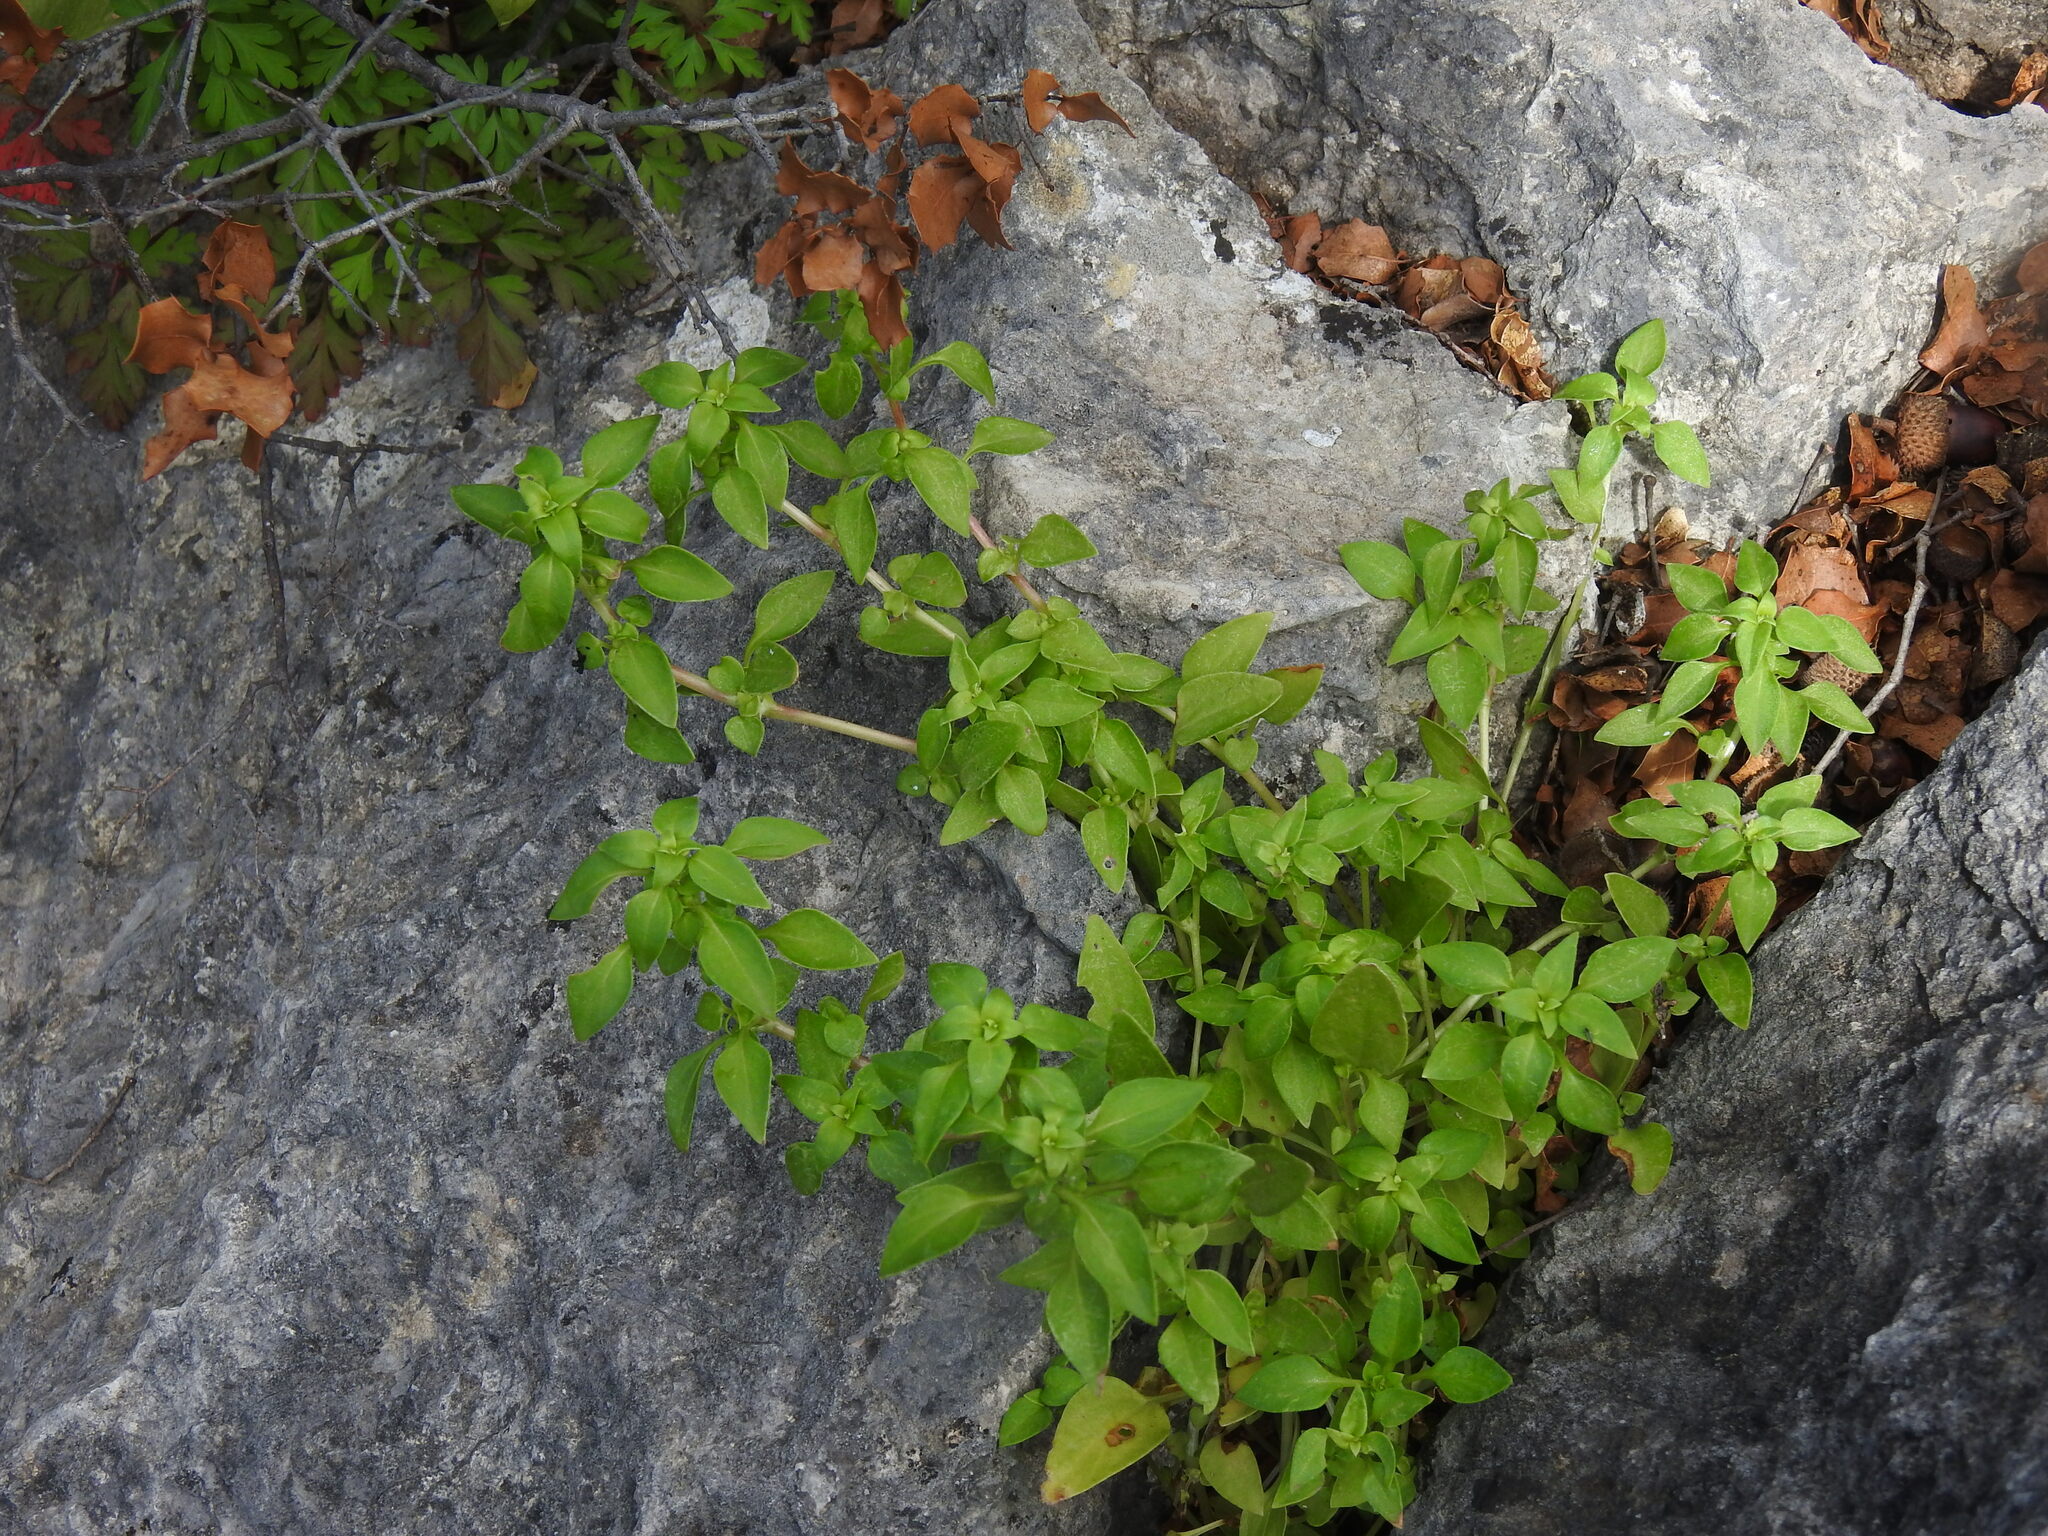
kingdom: Plantae
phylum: Tracheophyta
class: Magnoliopsida
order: Gentianales
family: Rubiaceae
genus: Theligonum
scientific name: Theligonum cynocrambe
